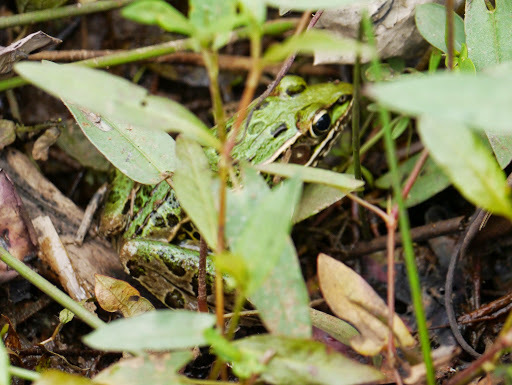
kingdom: Animalia
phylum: Chordata
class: Amphibia
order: Anura
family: Ranidae
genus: Lithobates
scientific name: Lithobates sphenocephalus
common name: Southern leopard frog
